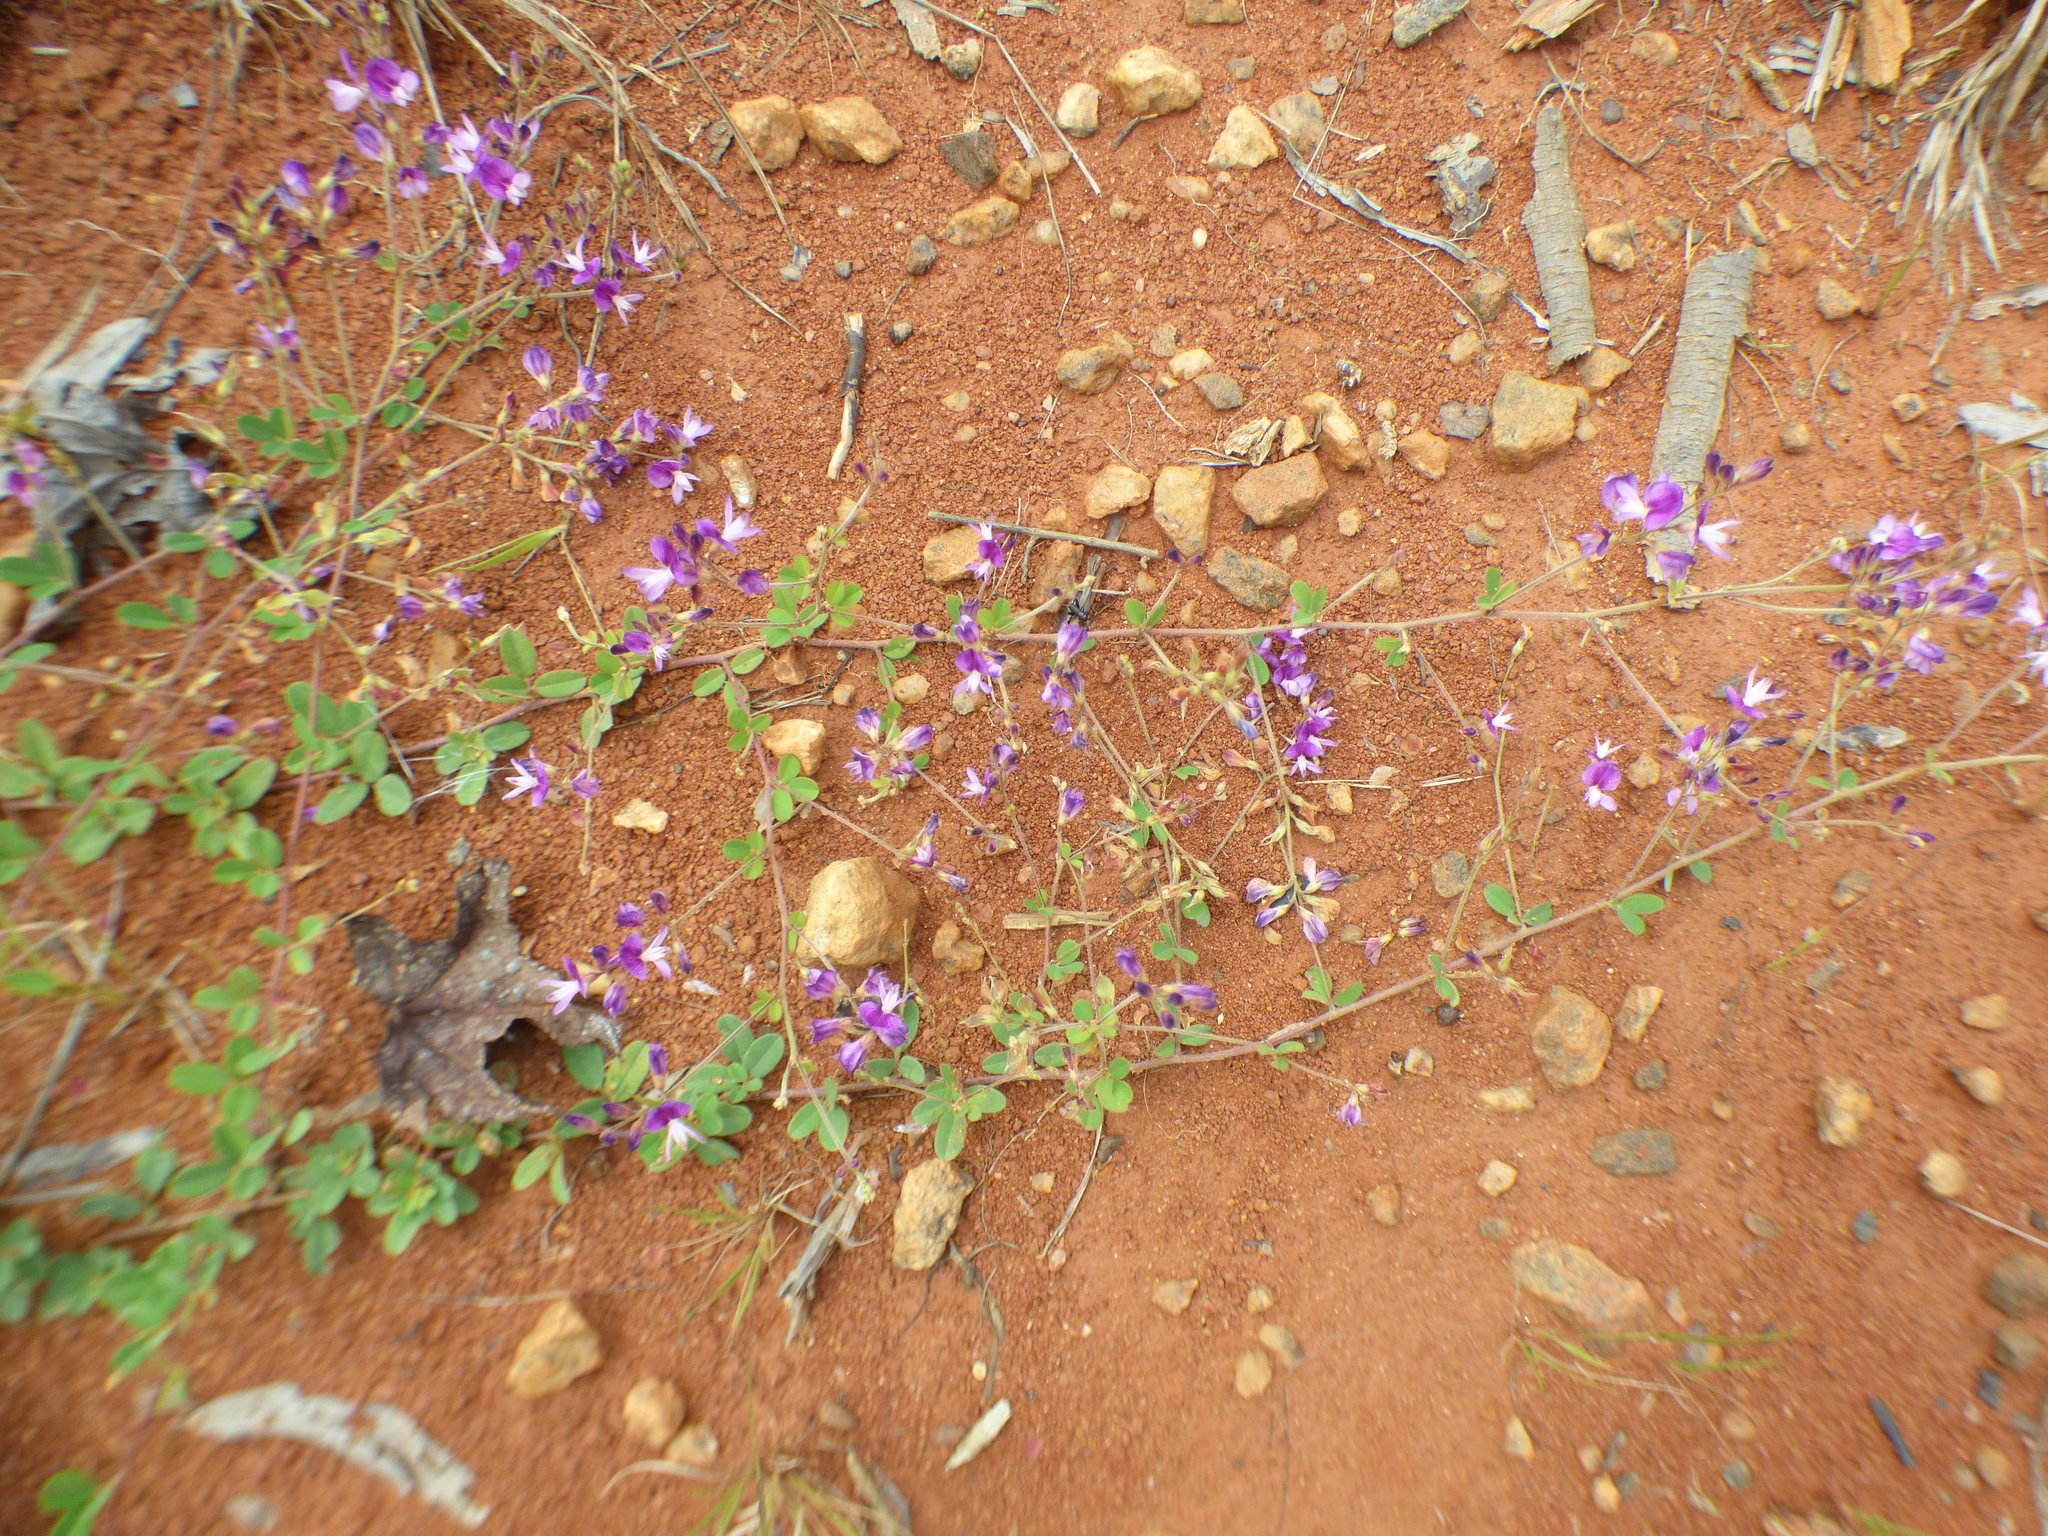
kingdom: Plantae
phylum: Tracheophyta
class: Magnoliopsida
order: Fabales
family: Fabaceae
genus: Lespedeza
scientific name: Lespedeza procumbens
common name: Downy trailing bush-clover
